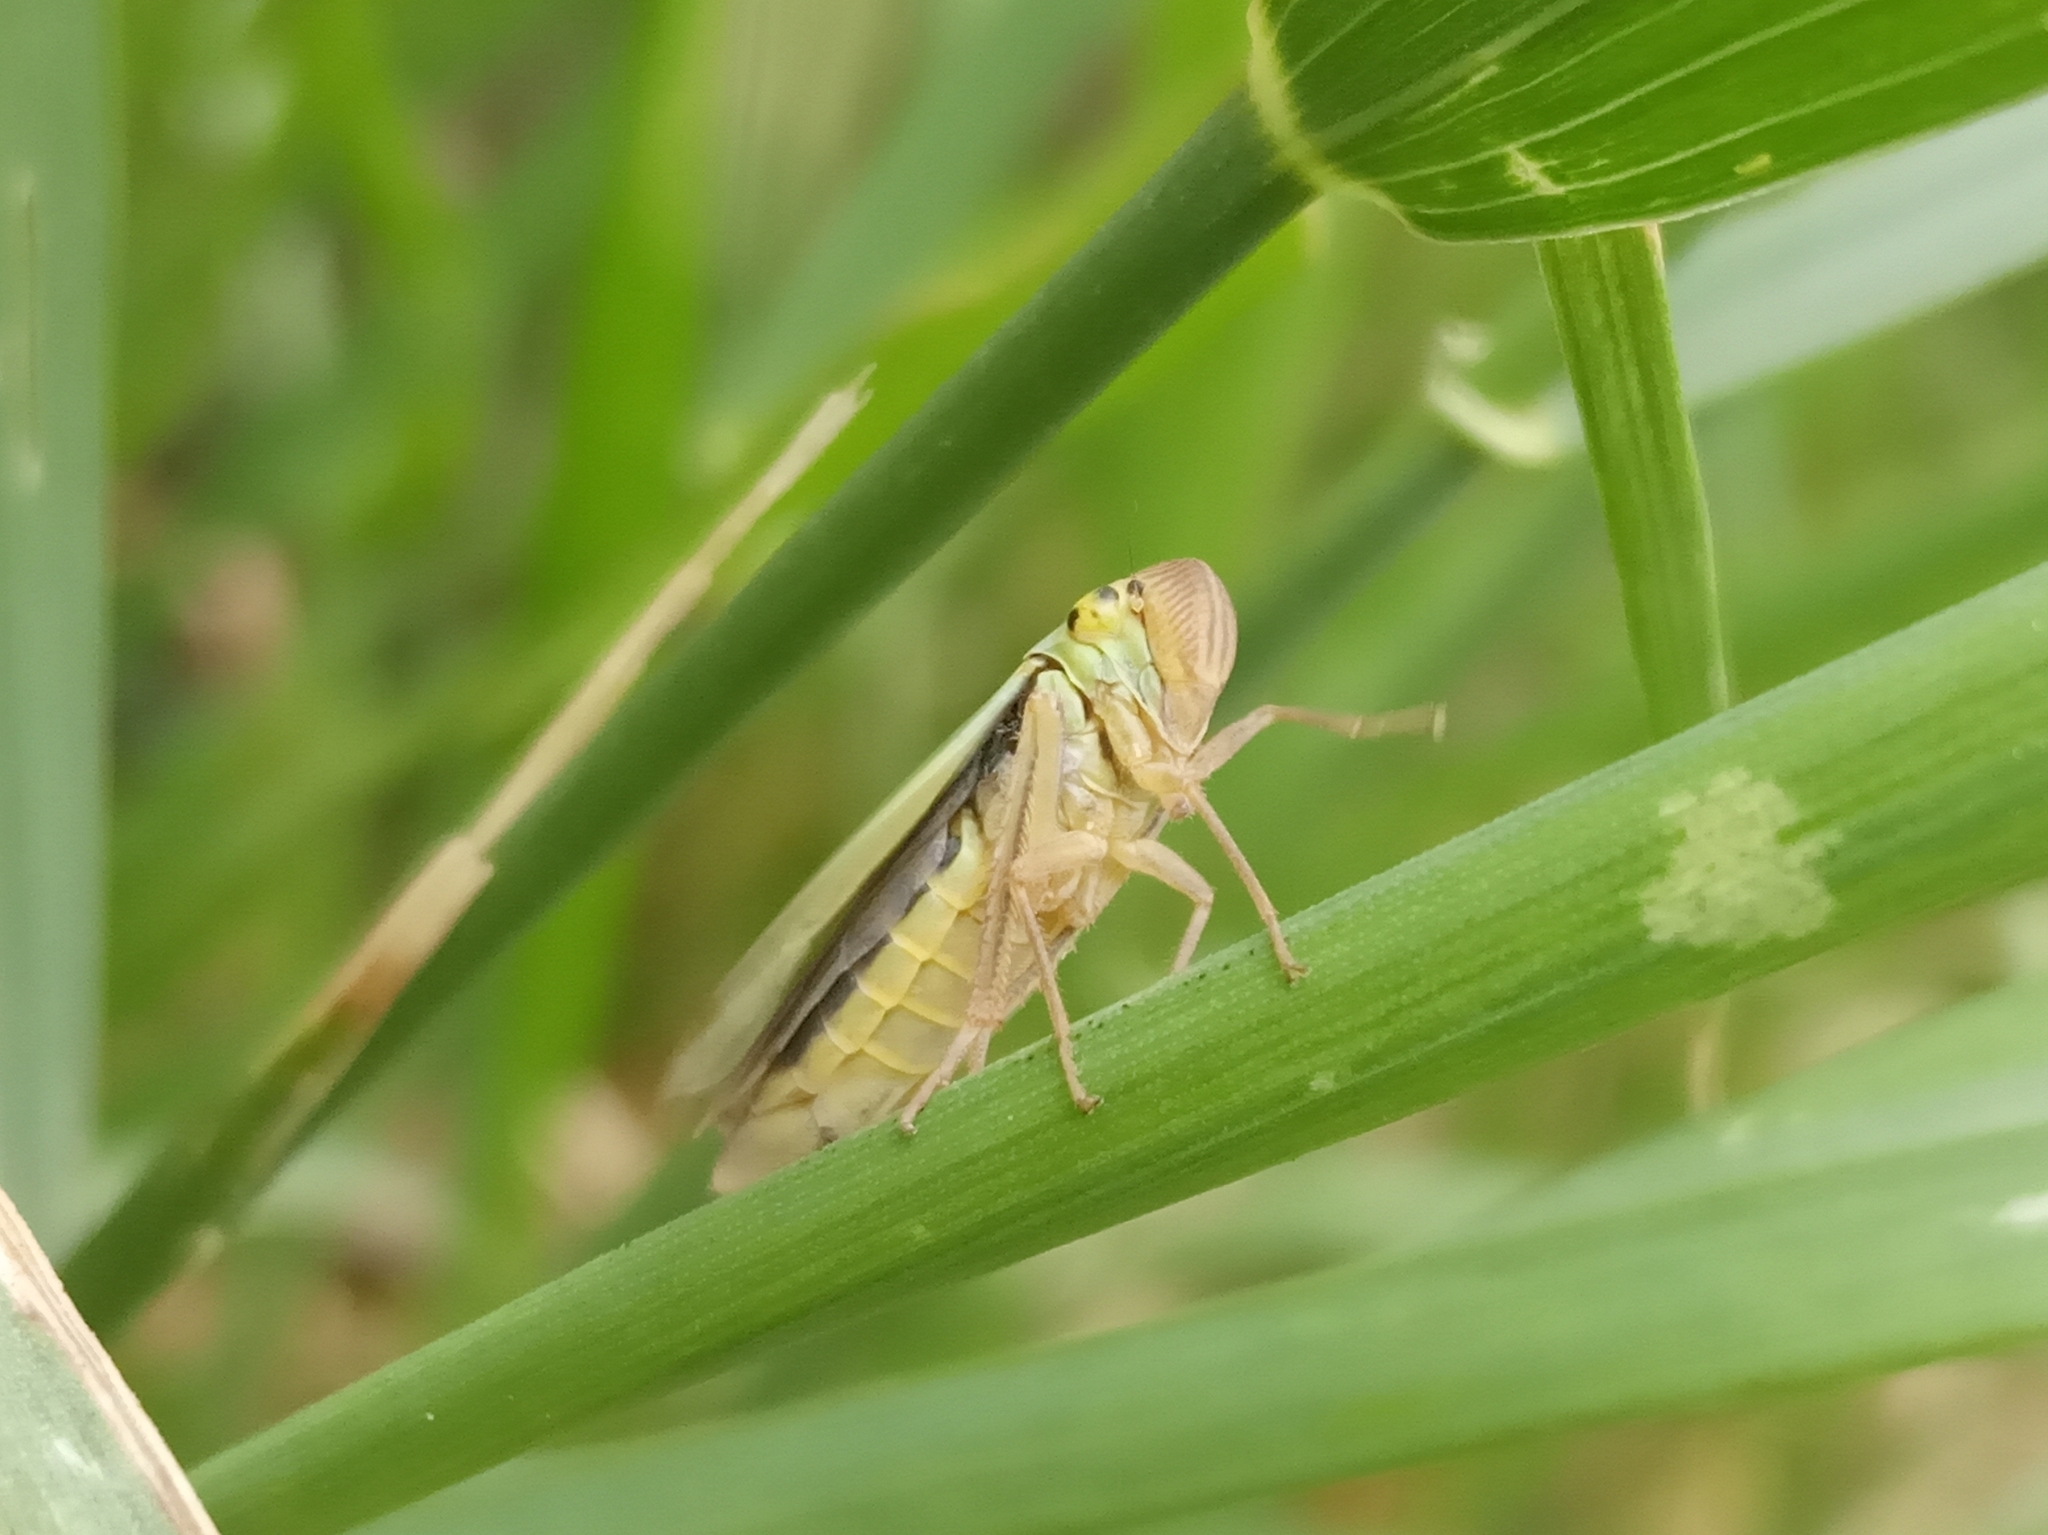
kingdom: Animalia
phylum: Arthropoda
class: Insecta
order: Hemiptera
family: Cicadellidae
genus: Cicadella
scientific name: Cicadella viridis
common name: Leafhopper
